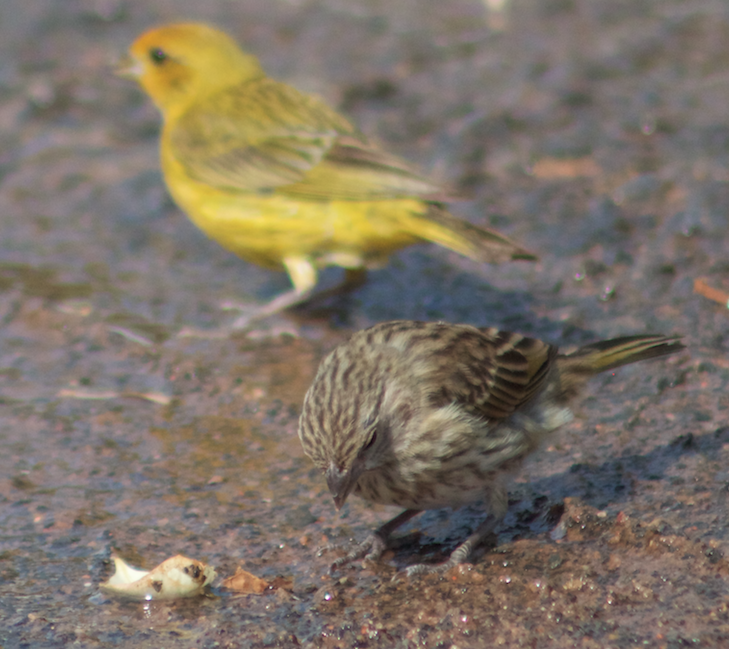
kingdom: Animalia
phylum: Chordata
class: Aves
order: Passeriformes
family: Thraupidae
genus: Sicalis
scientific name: Sicalis flaveola
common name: Saffron finch
